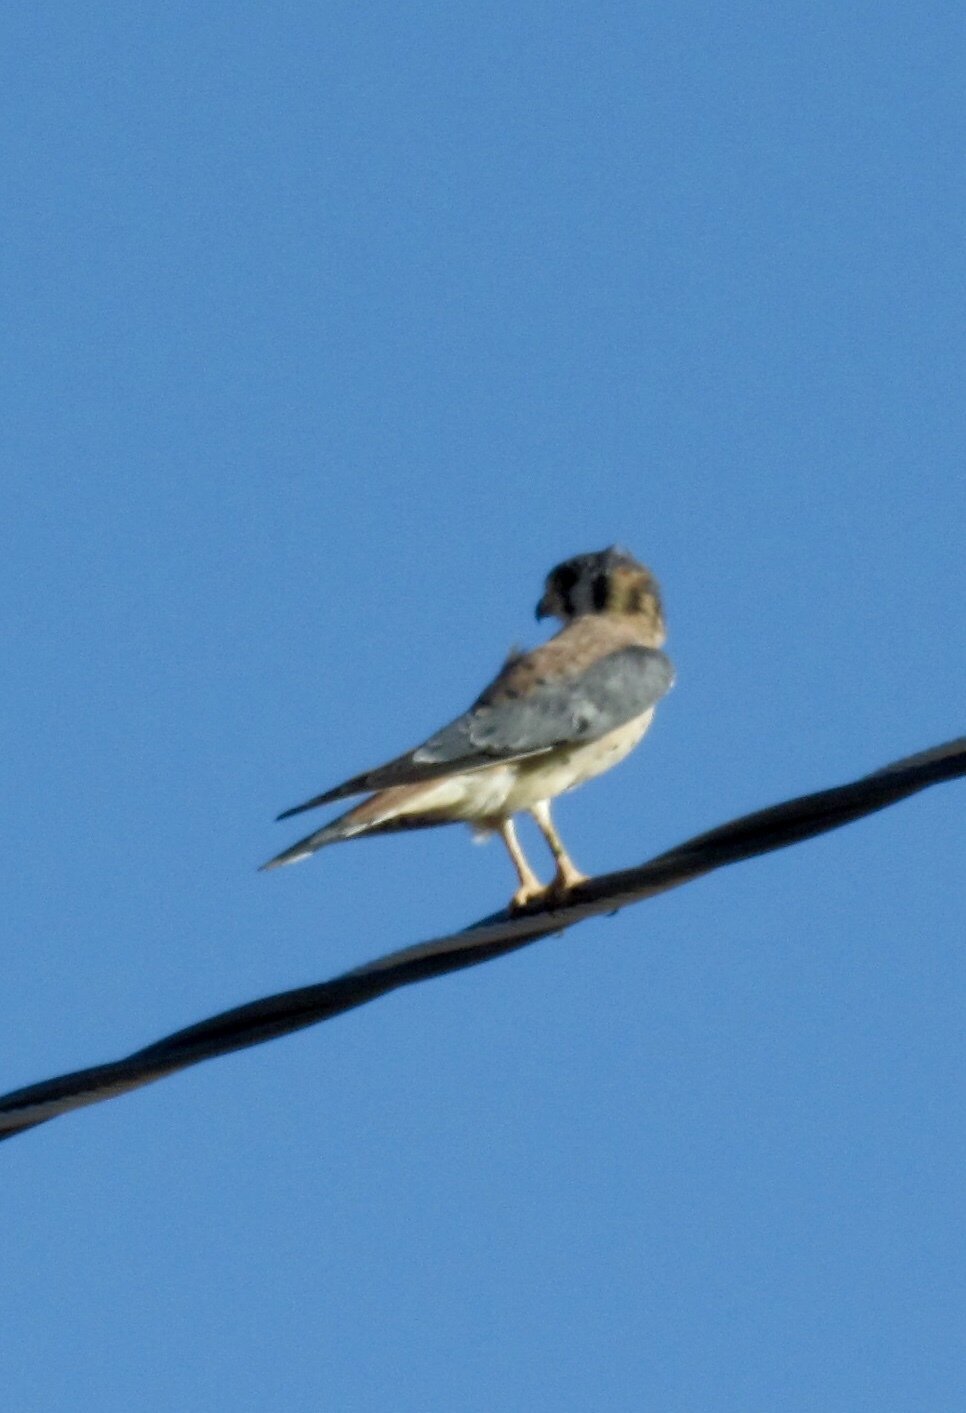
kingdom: Animalia
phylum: Chordata
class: Aves
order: Falconiformes
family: Falconidae
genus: Falco
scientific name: Falco sparverius
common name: American kestrel
